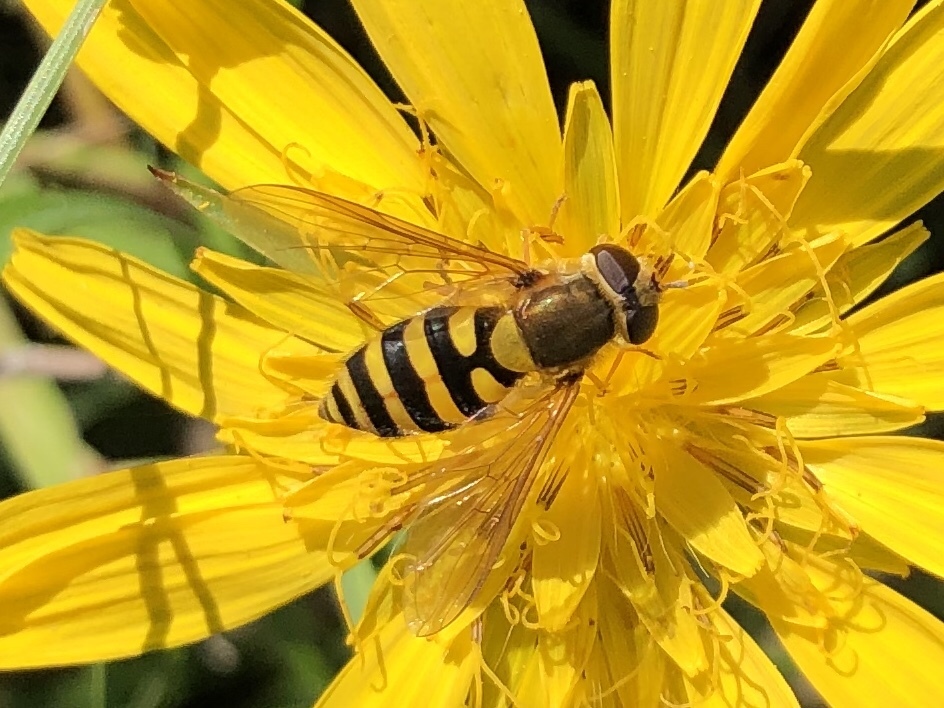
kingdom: Animalia
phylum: Arthropoda
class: Insecta
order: Diptera
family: Syrphidae
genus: Syrphus
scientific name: Syrphus
